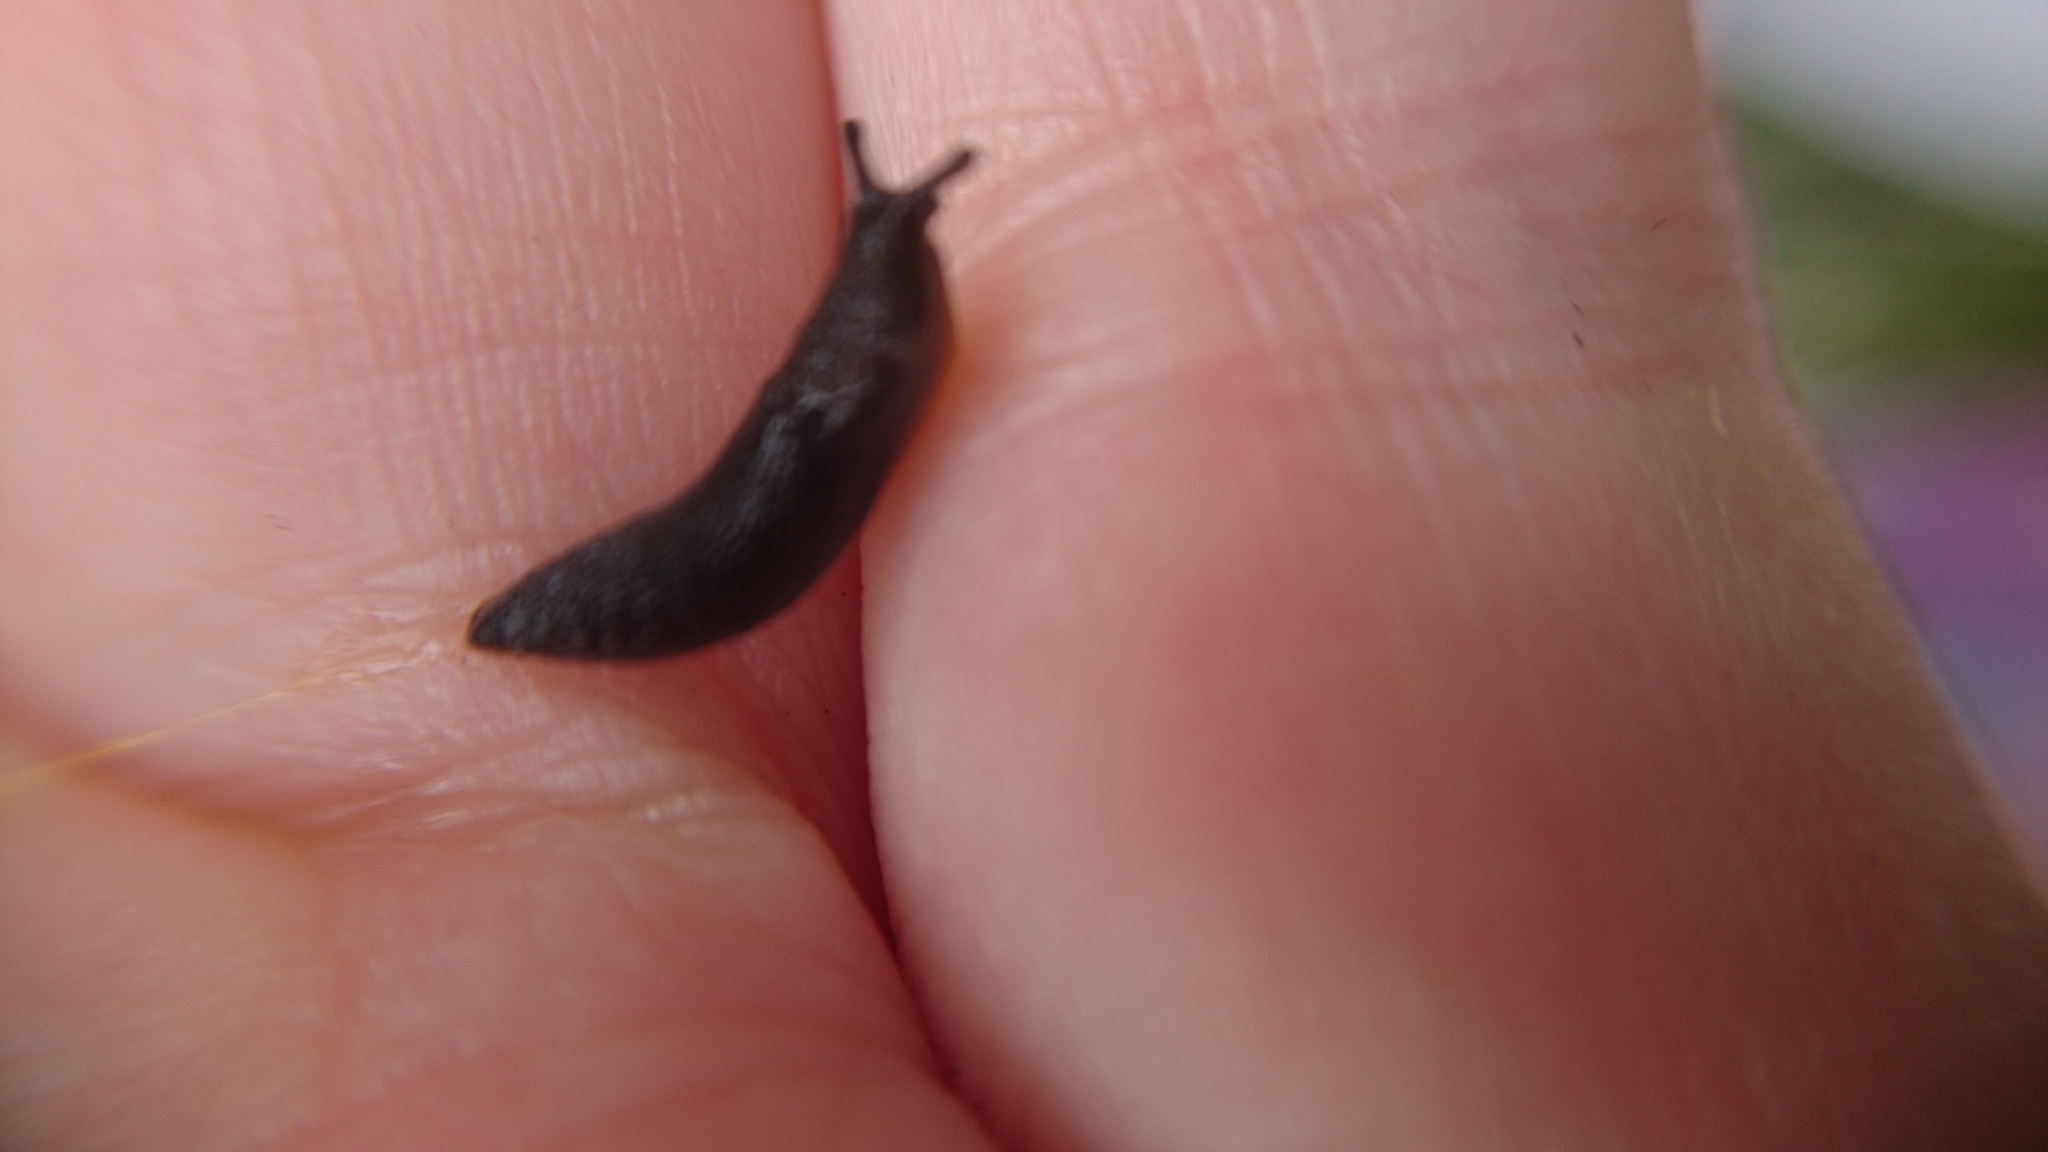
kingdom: Animalia
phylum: Mollusca
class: Gastropoda
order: Stylommatophora
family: Arionidae
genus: Arion
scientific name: Arion distinctus
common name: Darkface arion
